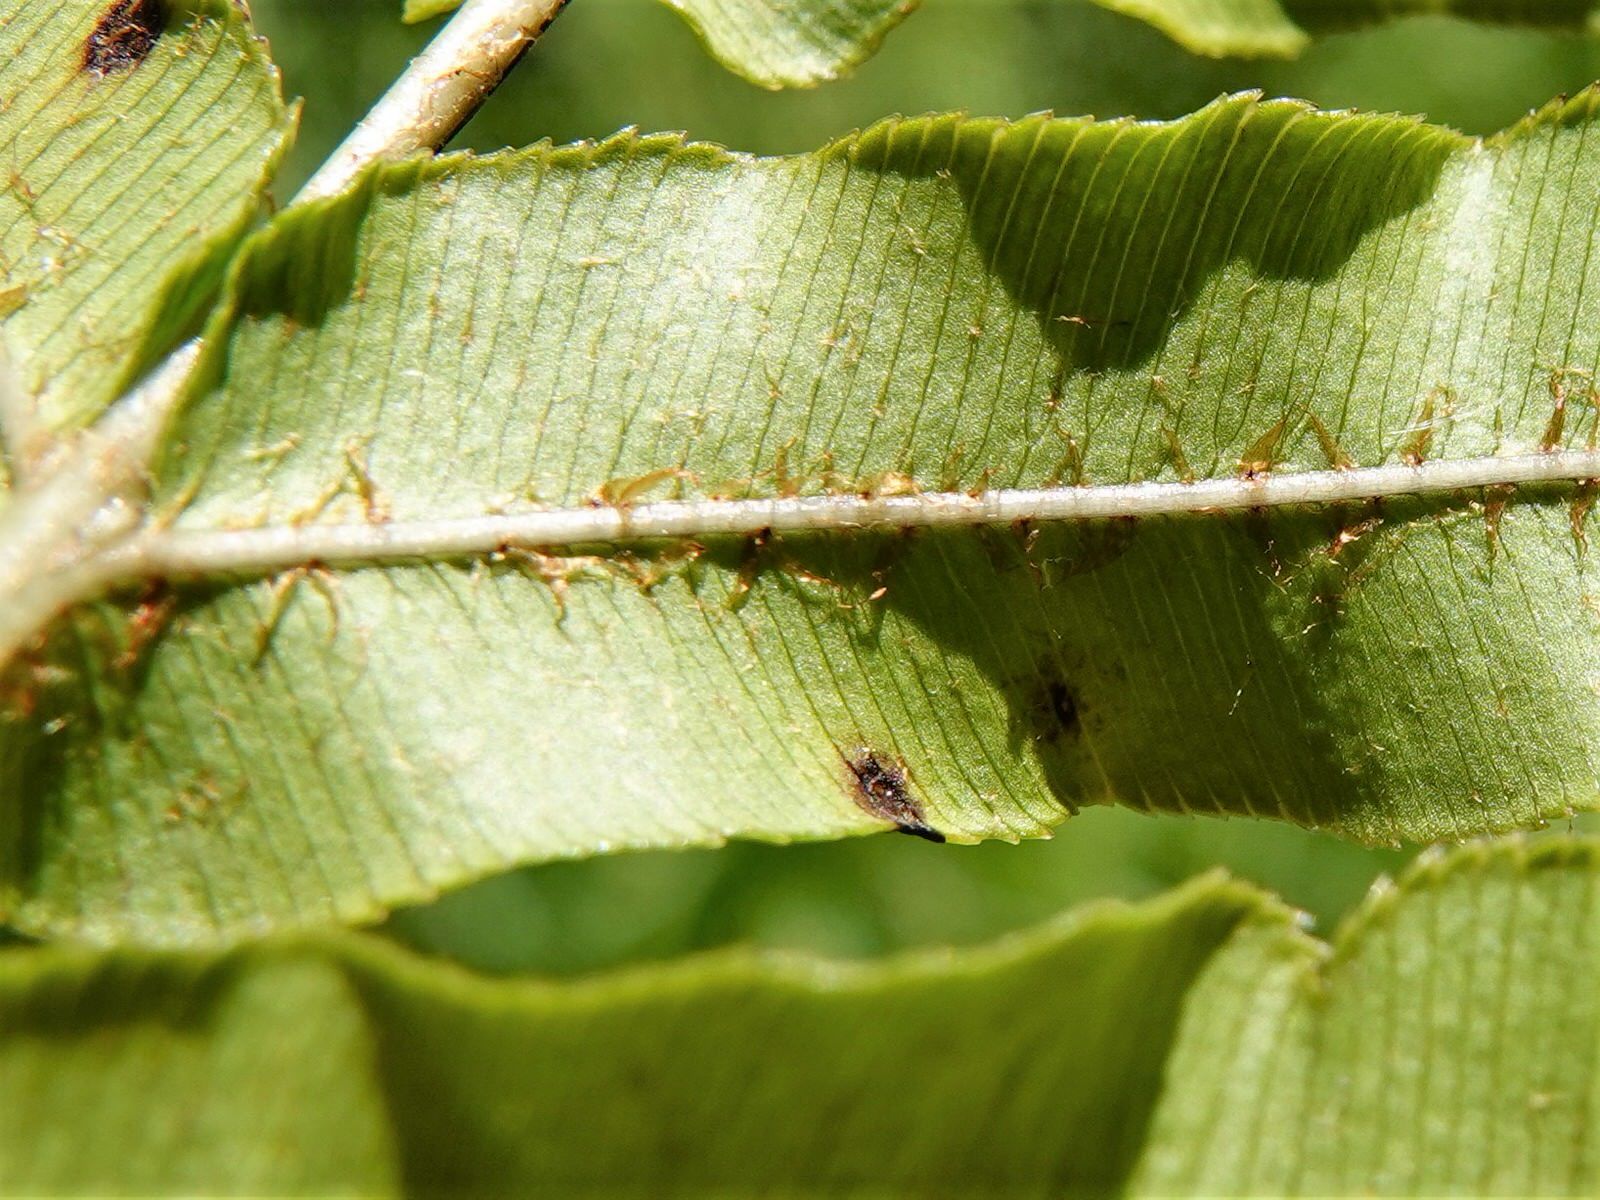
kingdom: Plantae
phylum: Tracheophyta
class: Polypodiopsida
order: Polypodiales
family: Blechnaceae
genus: Parablechnum
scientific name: Parablechnum novae-zelandiae
